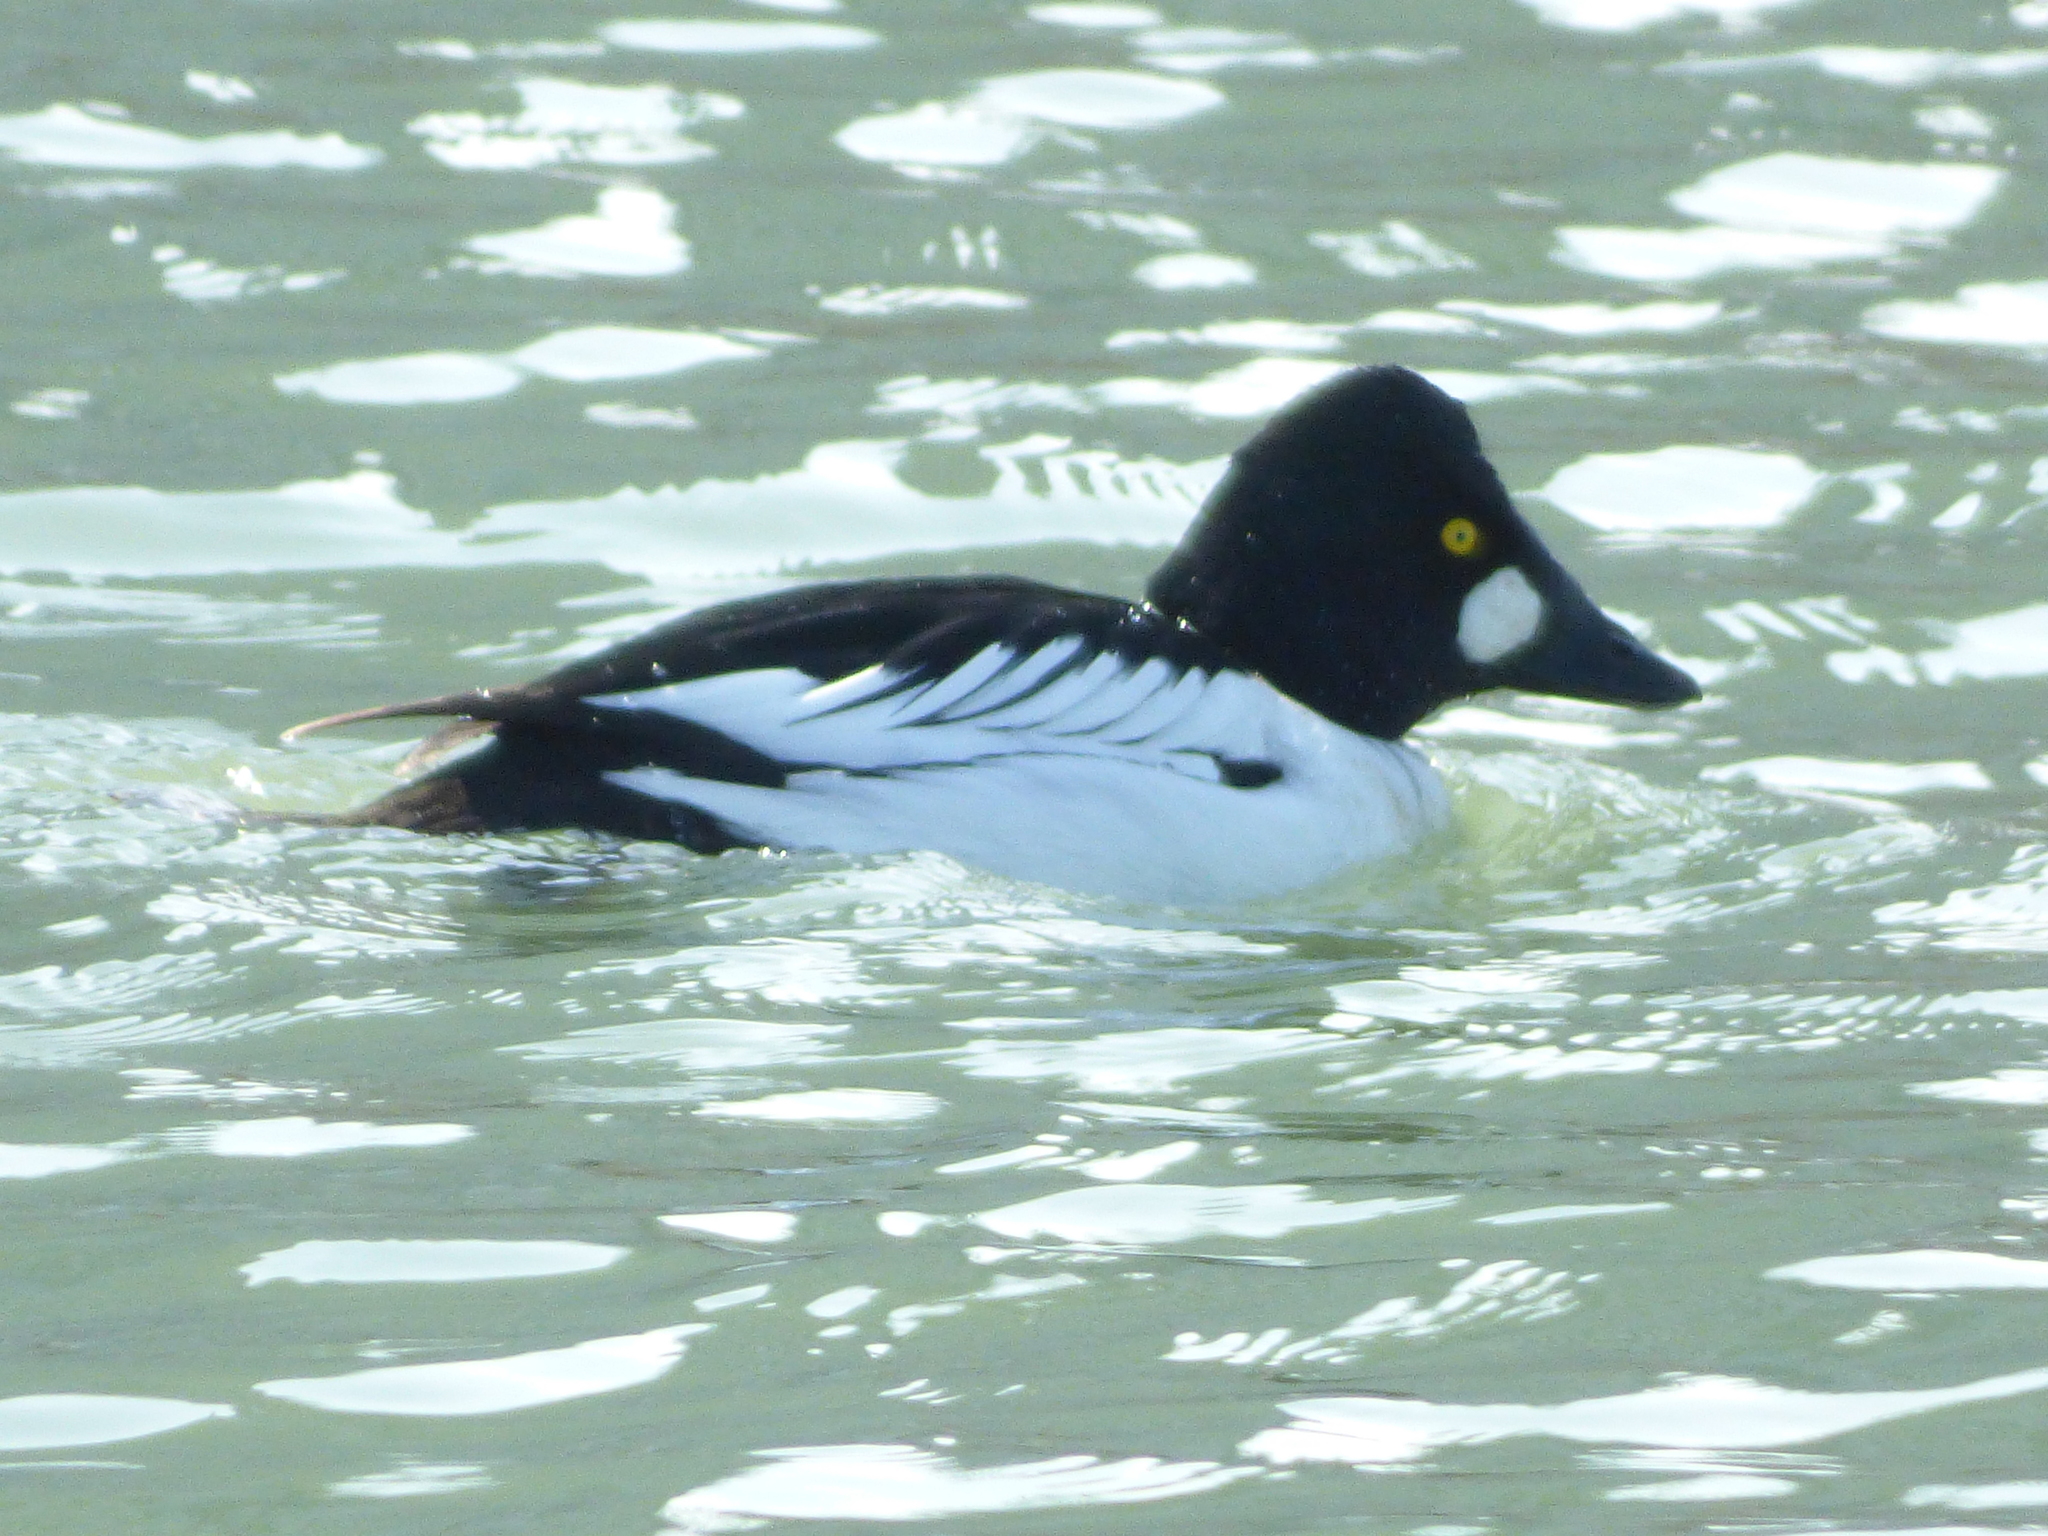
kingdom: Animalia
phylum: Chordata
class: Aves
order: Anseriformes
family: Anatidae
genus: Bucephala
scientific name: Bucephala clangula
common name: Common goldeneye
